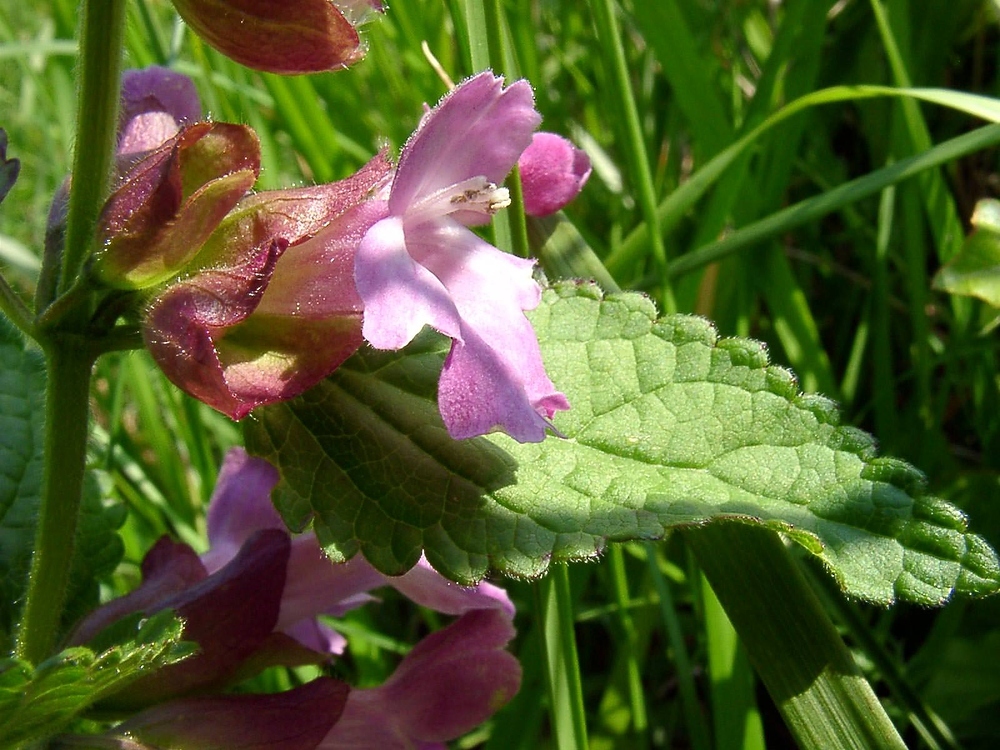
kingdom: Plantae
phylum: Tracheophyta
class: Magnoliopsida
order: Lamiales
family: Lamiaceae
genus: Melittis
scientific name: Melittis melissophyllum
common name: Bastard balm
